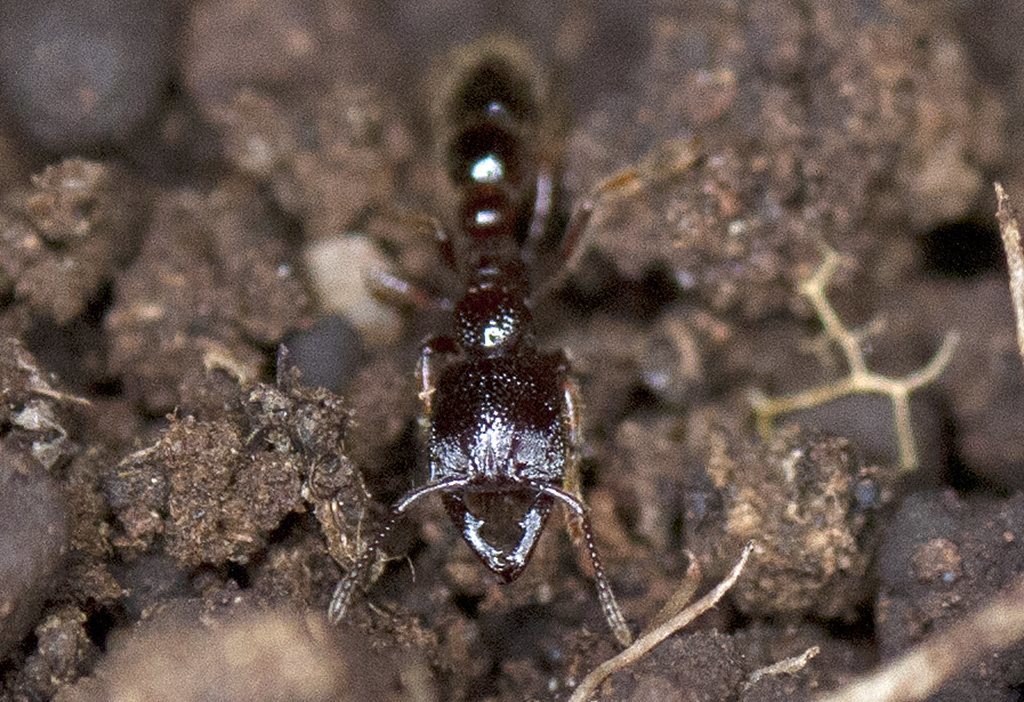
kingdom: Animalia
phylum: Arthropoda
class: Insecta
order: Hymenoptera
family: Formicidae
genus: Amblyopone
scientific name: Amblyopone australis
